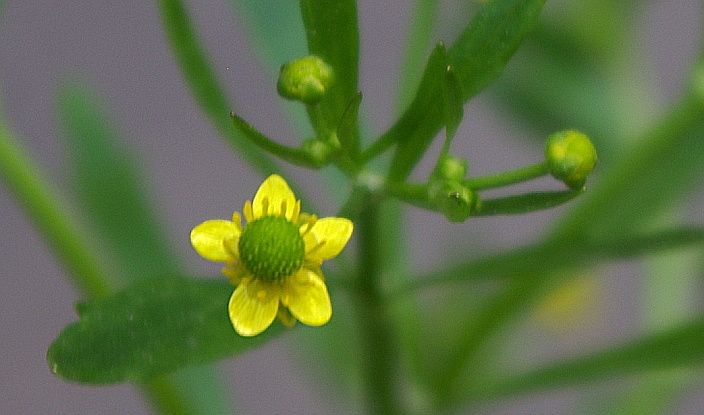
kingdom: Plantae
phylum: Tracheophyta
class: Magnoliopsida
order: Ranunculales
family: Ranunculaceae
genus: Ranunculus
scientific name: Ranunculus sceleratus
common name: Celery-leaved buttercup
